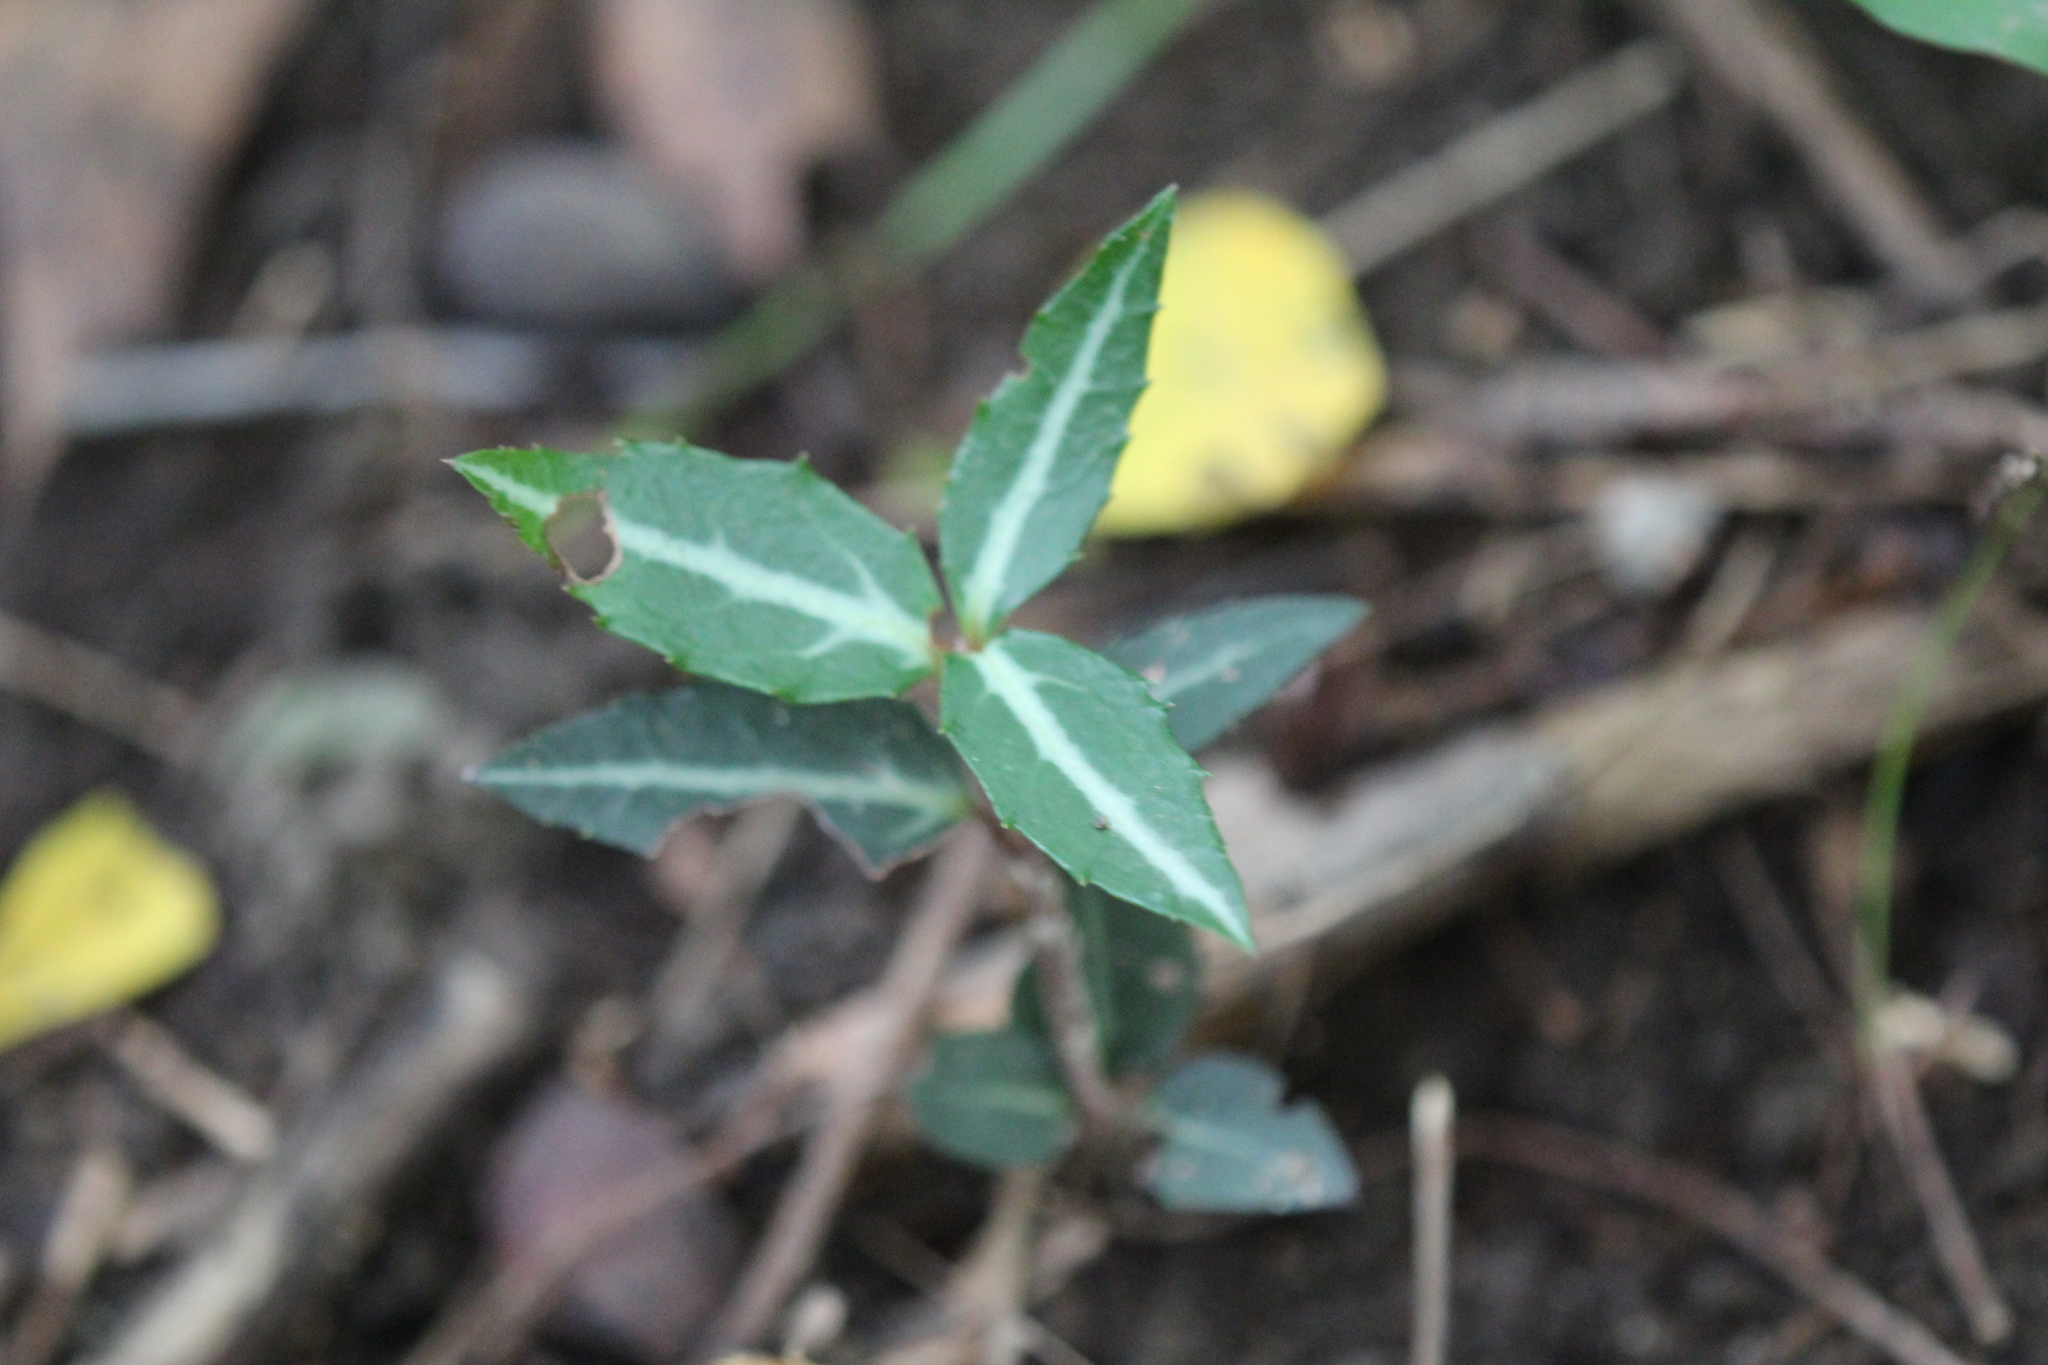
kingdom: Plantae
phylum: Tracheophyta
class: Magnoliopsida
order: Ericales
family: Ericaceae
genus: Chimaphila
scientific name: Chimaphila maculata
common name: Spotted pipsissewa
